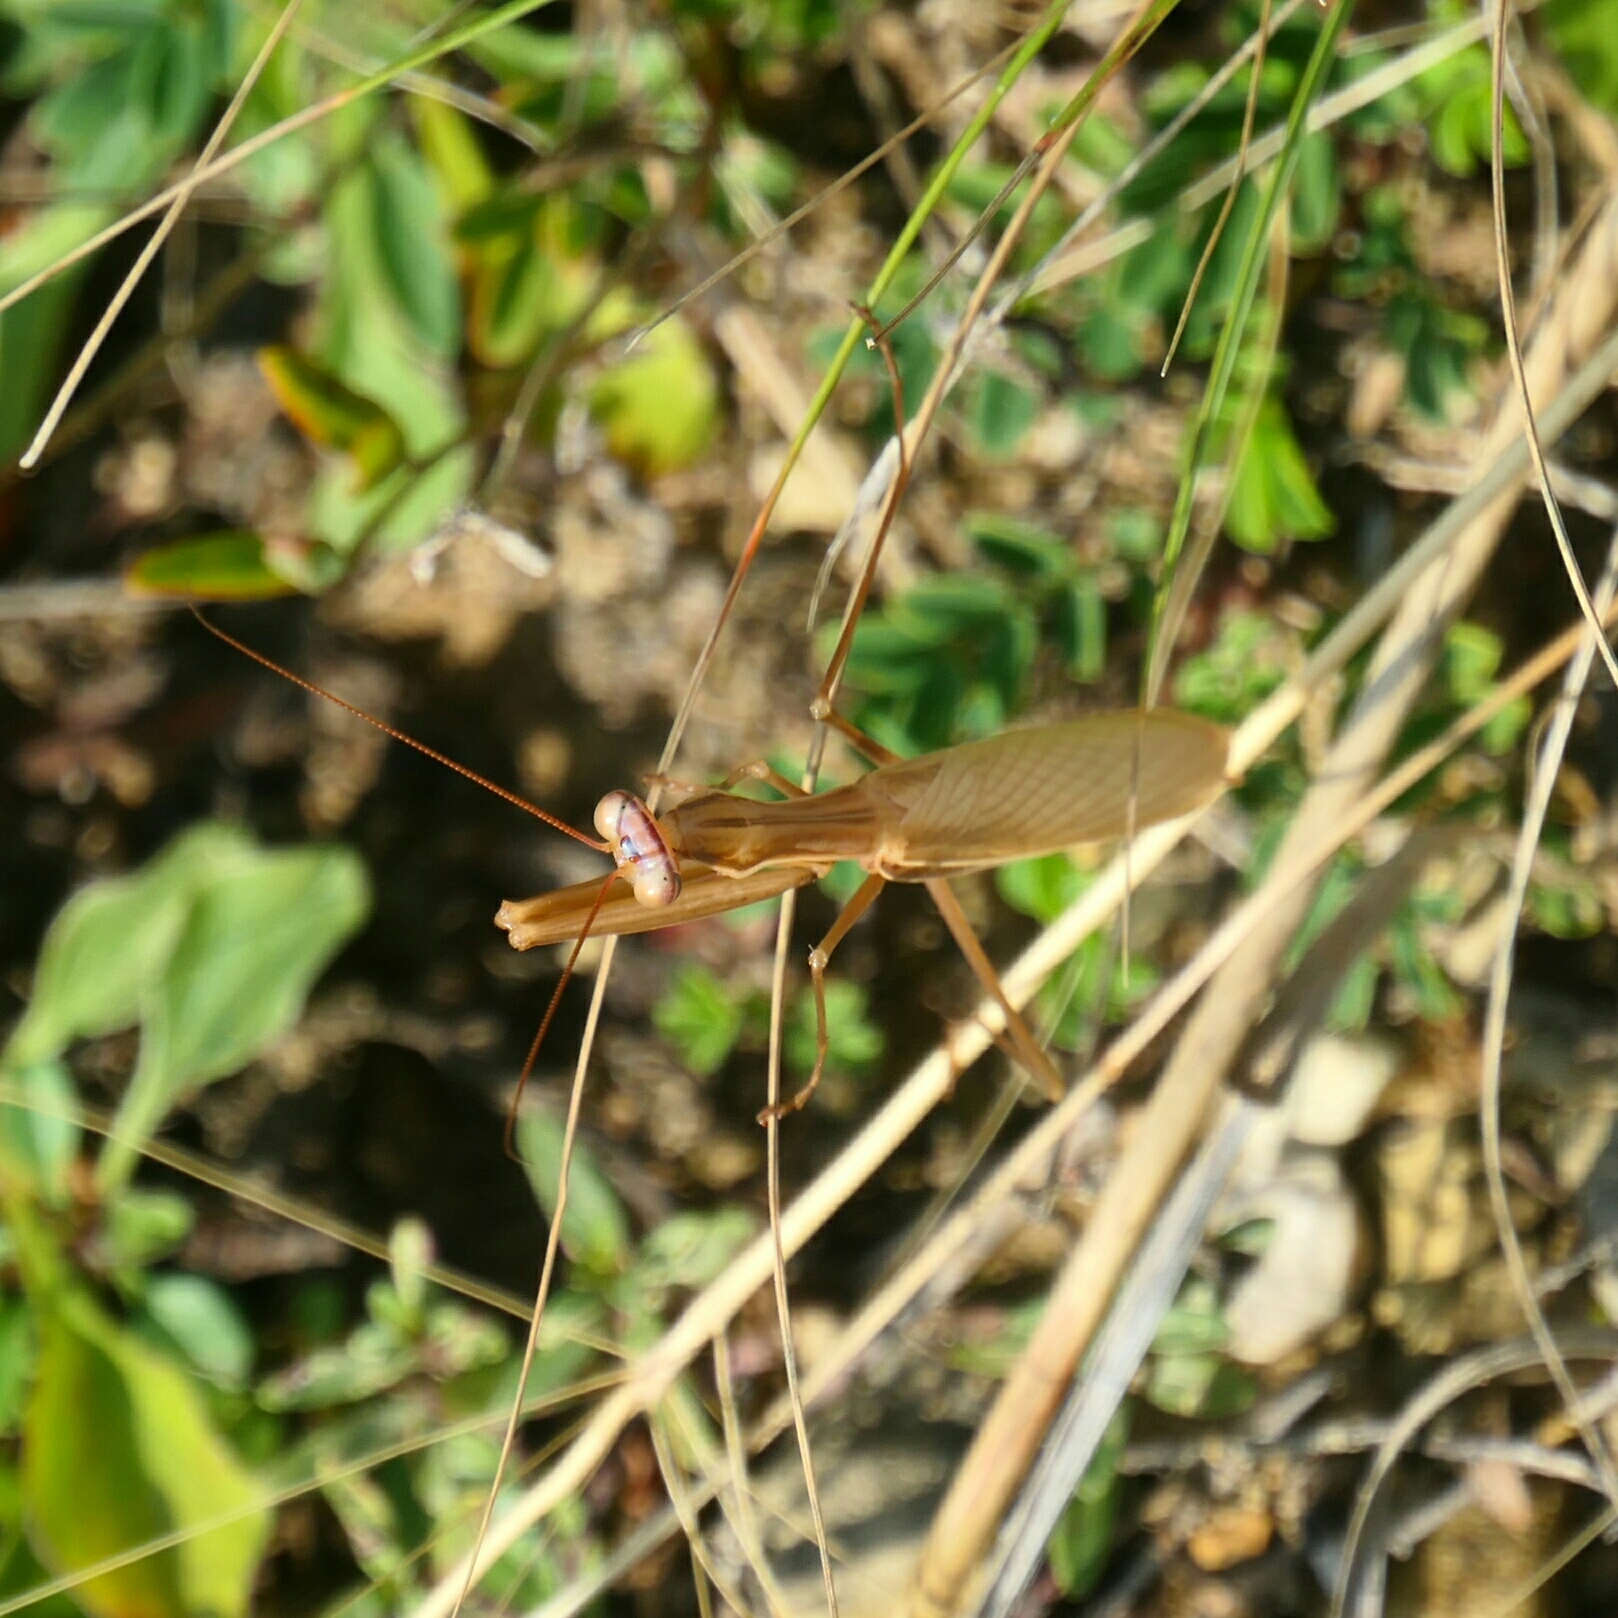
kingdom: Animalia
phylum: Arthropoda
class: Insecta
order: Mantodea
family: Mantidae
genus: Mantis
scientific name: Mantis religiosa
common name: Praying mantis
